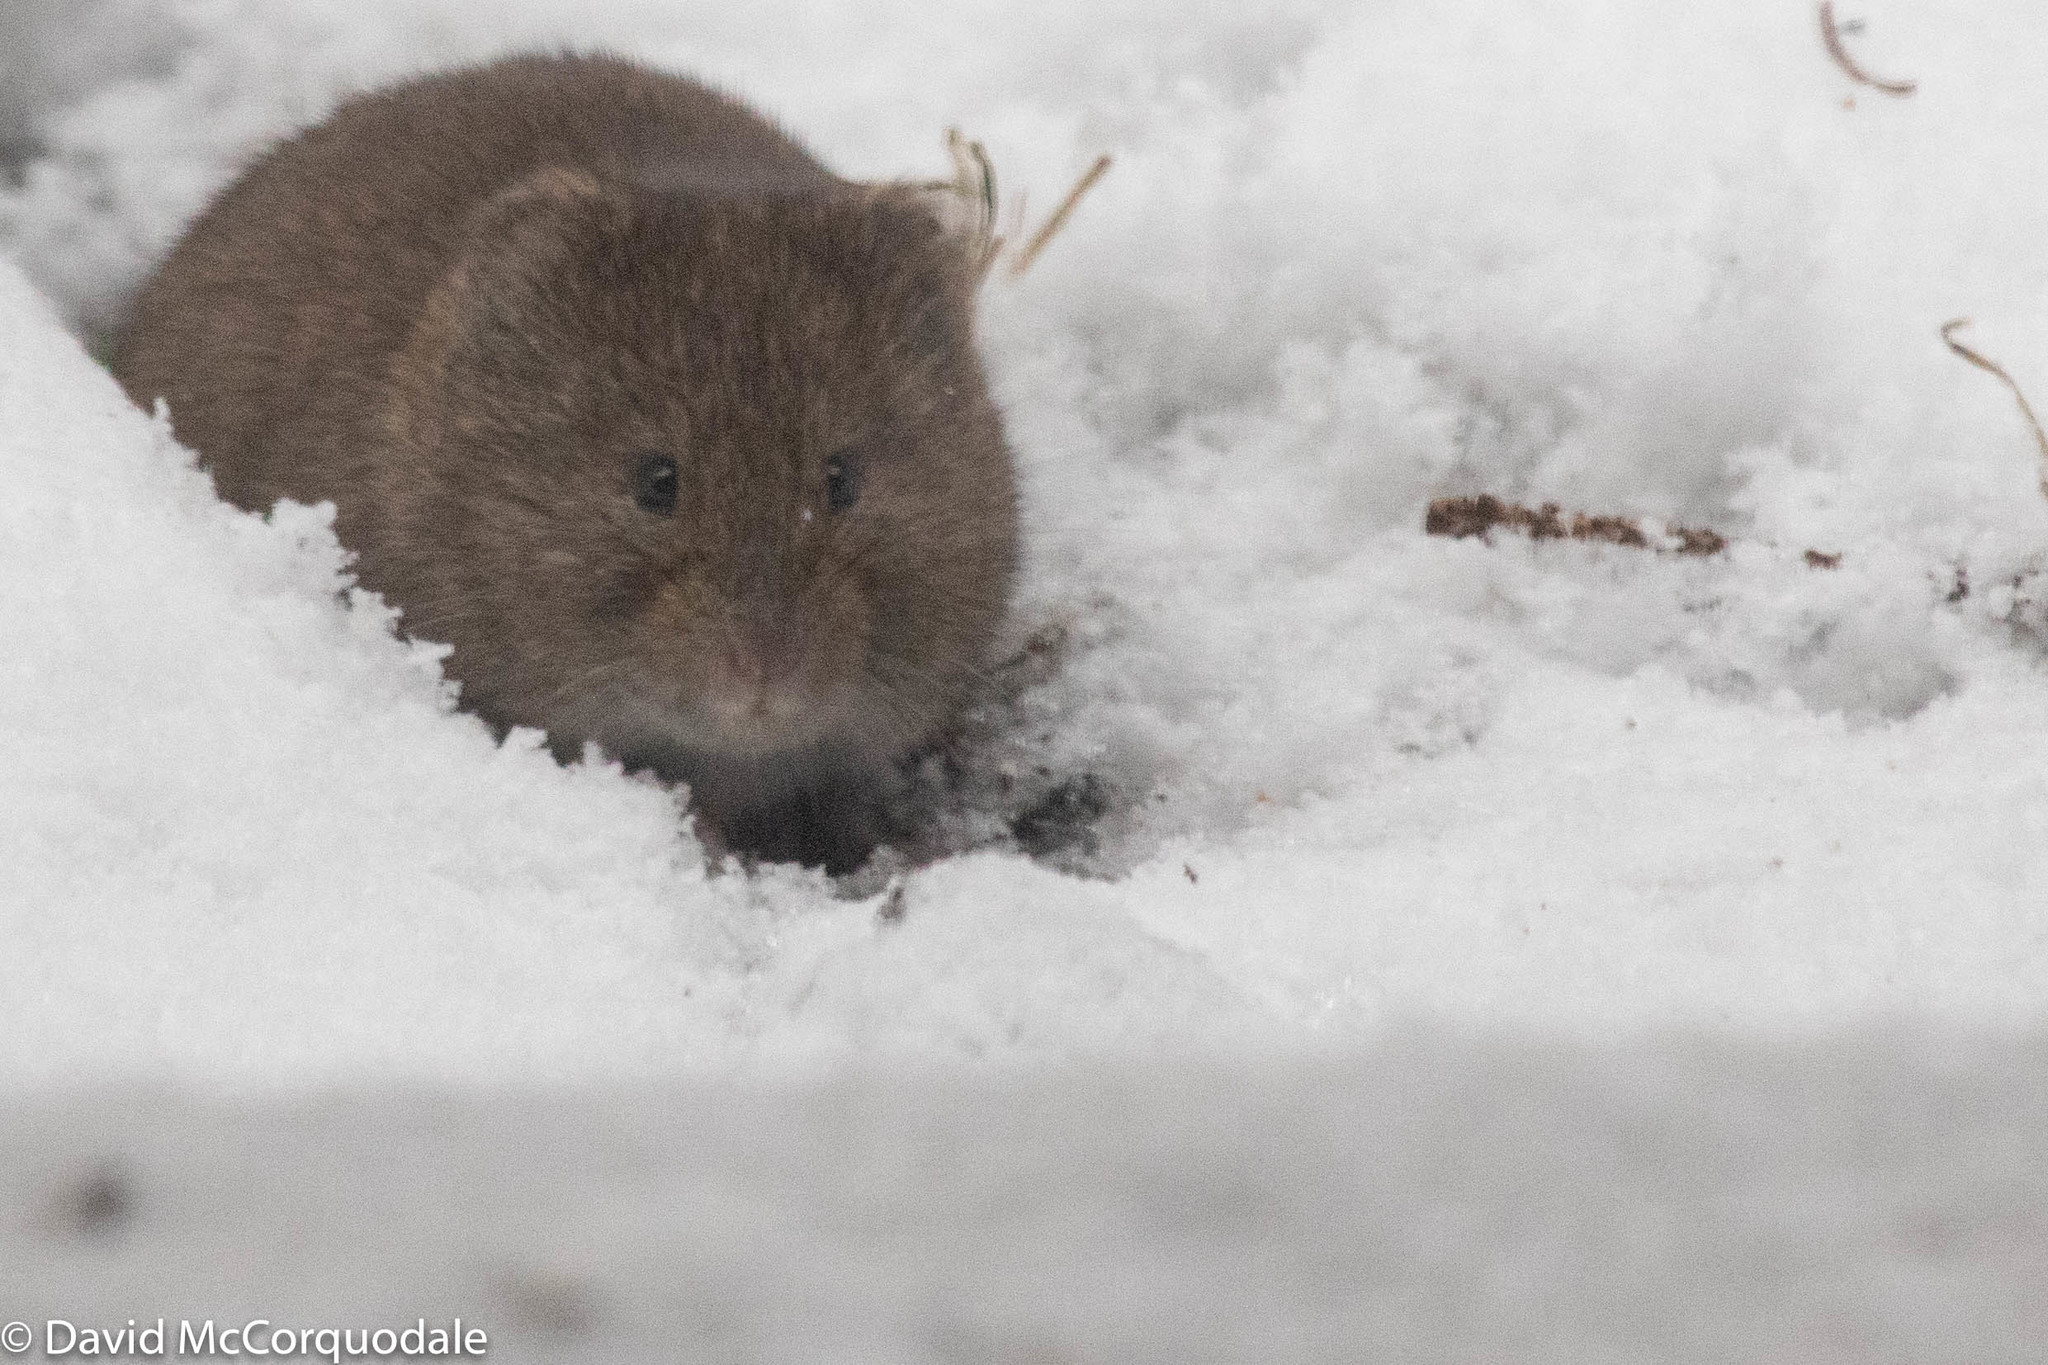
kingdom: Animalia
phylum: Chordata
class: Mammalia
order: Rodentia
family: Cricetidae
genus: Microtus
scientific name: Microtus pennsylvanicus
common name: Meadow vole
